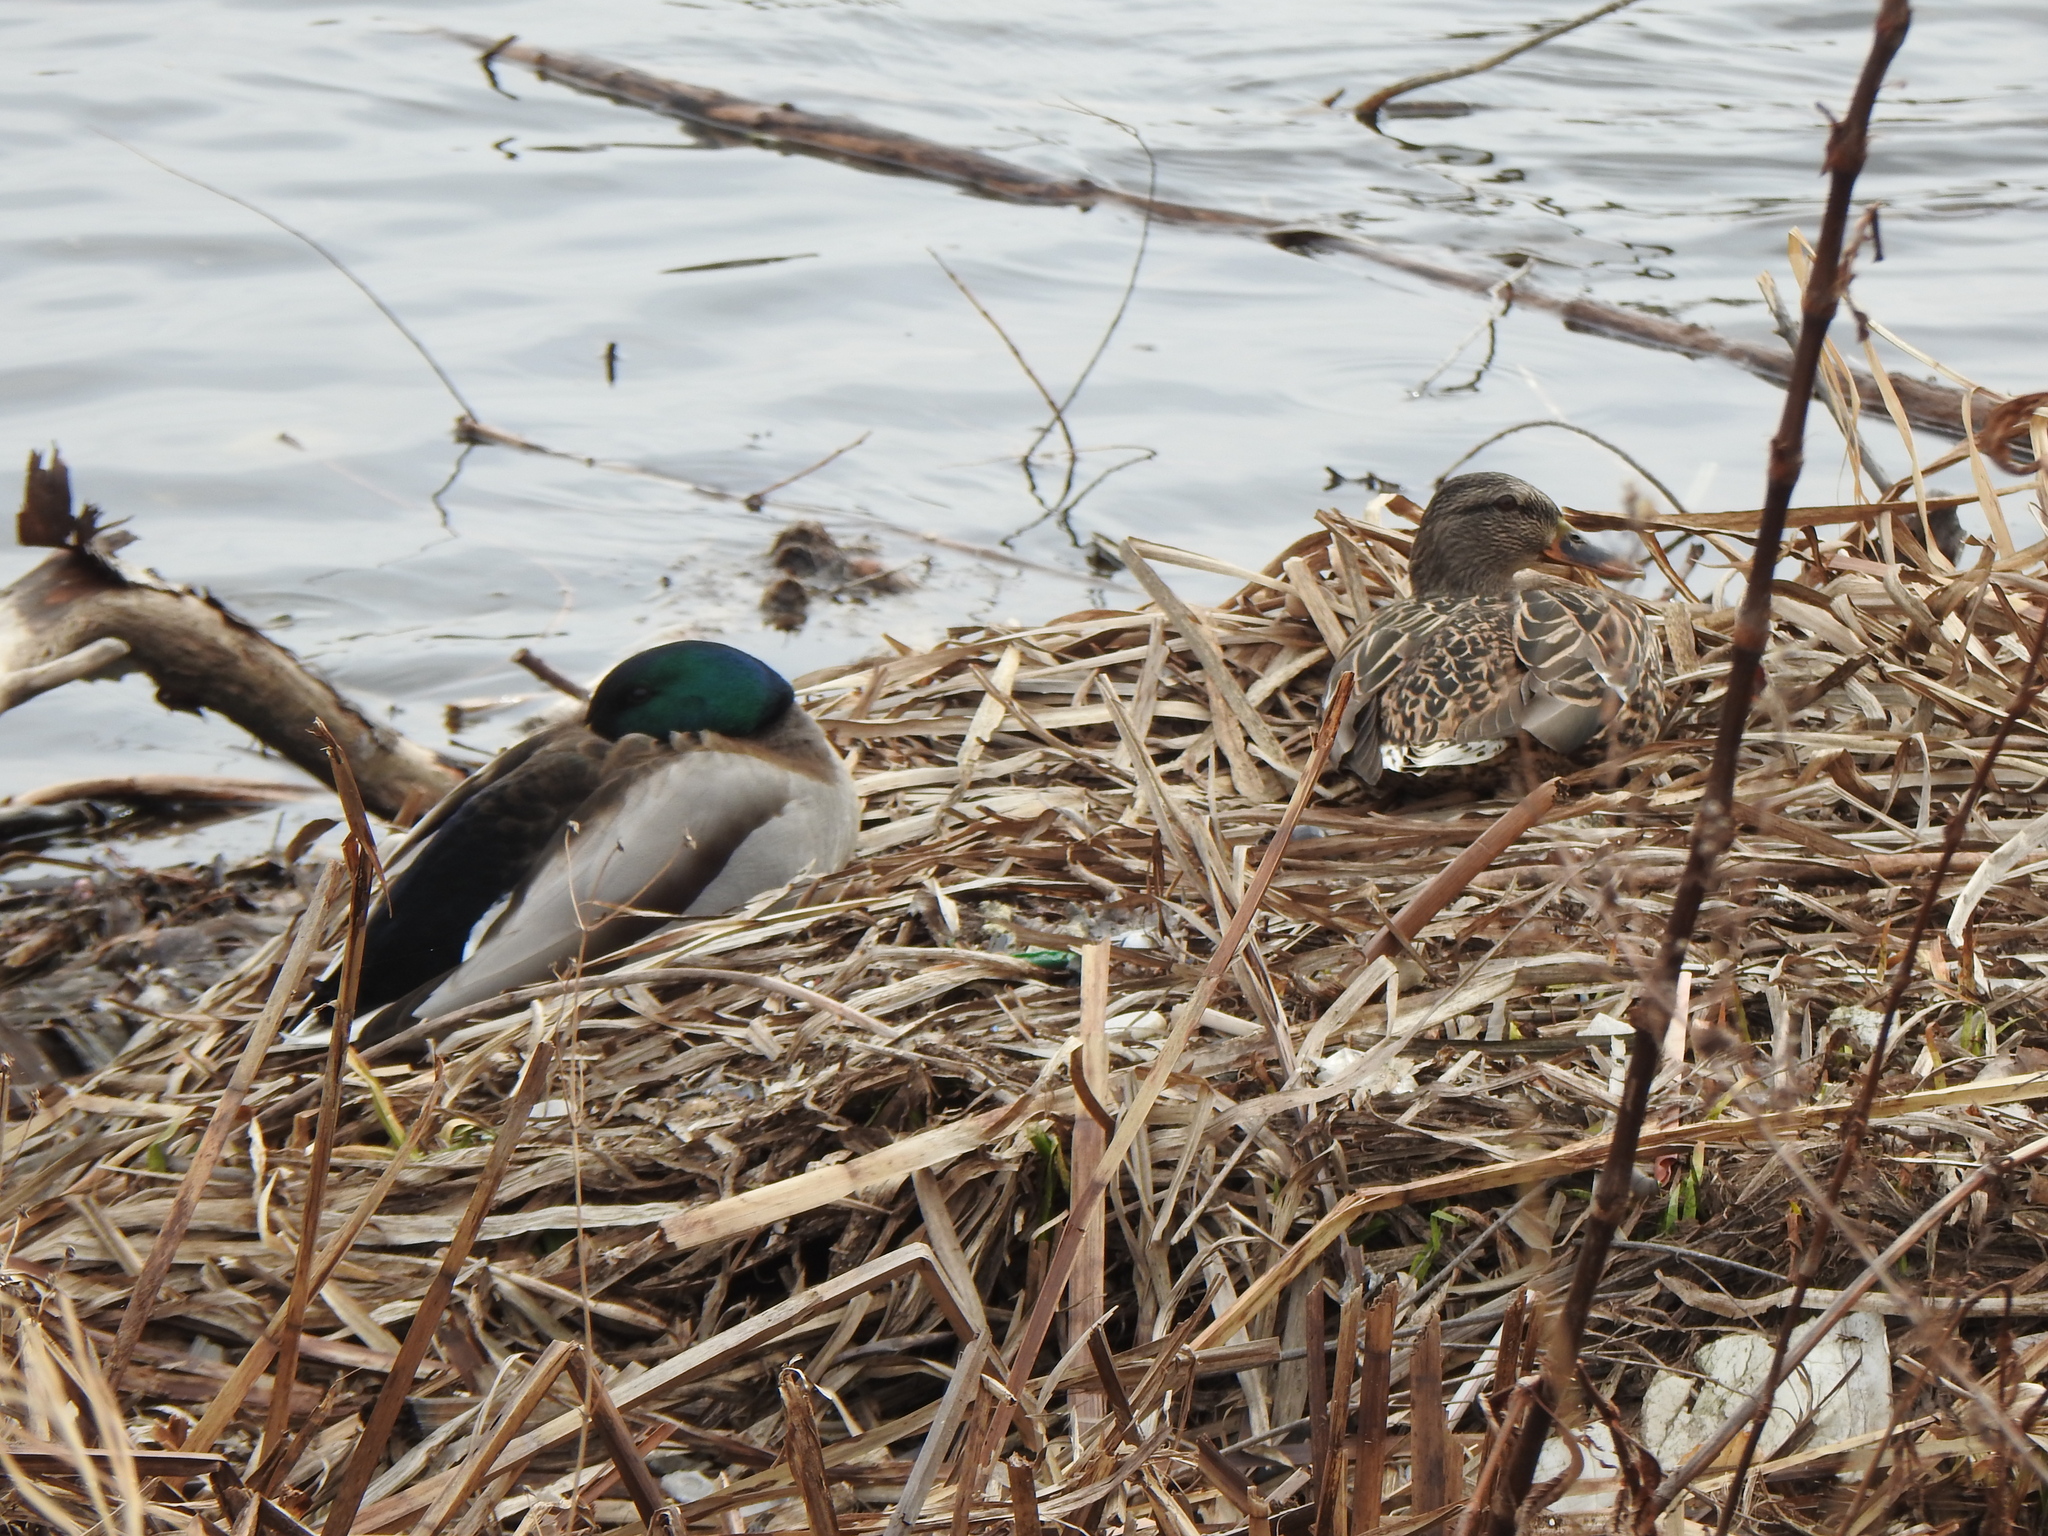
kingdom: Animalia
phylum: Chordata
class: Aves
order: Anseriformes
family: Anatidae
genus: Anas
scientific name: Anas platyrhynchos
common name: Mallard
